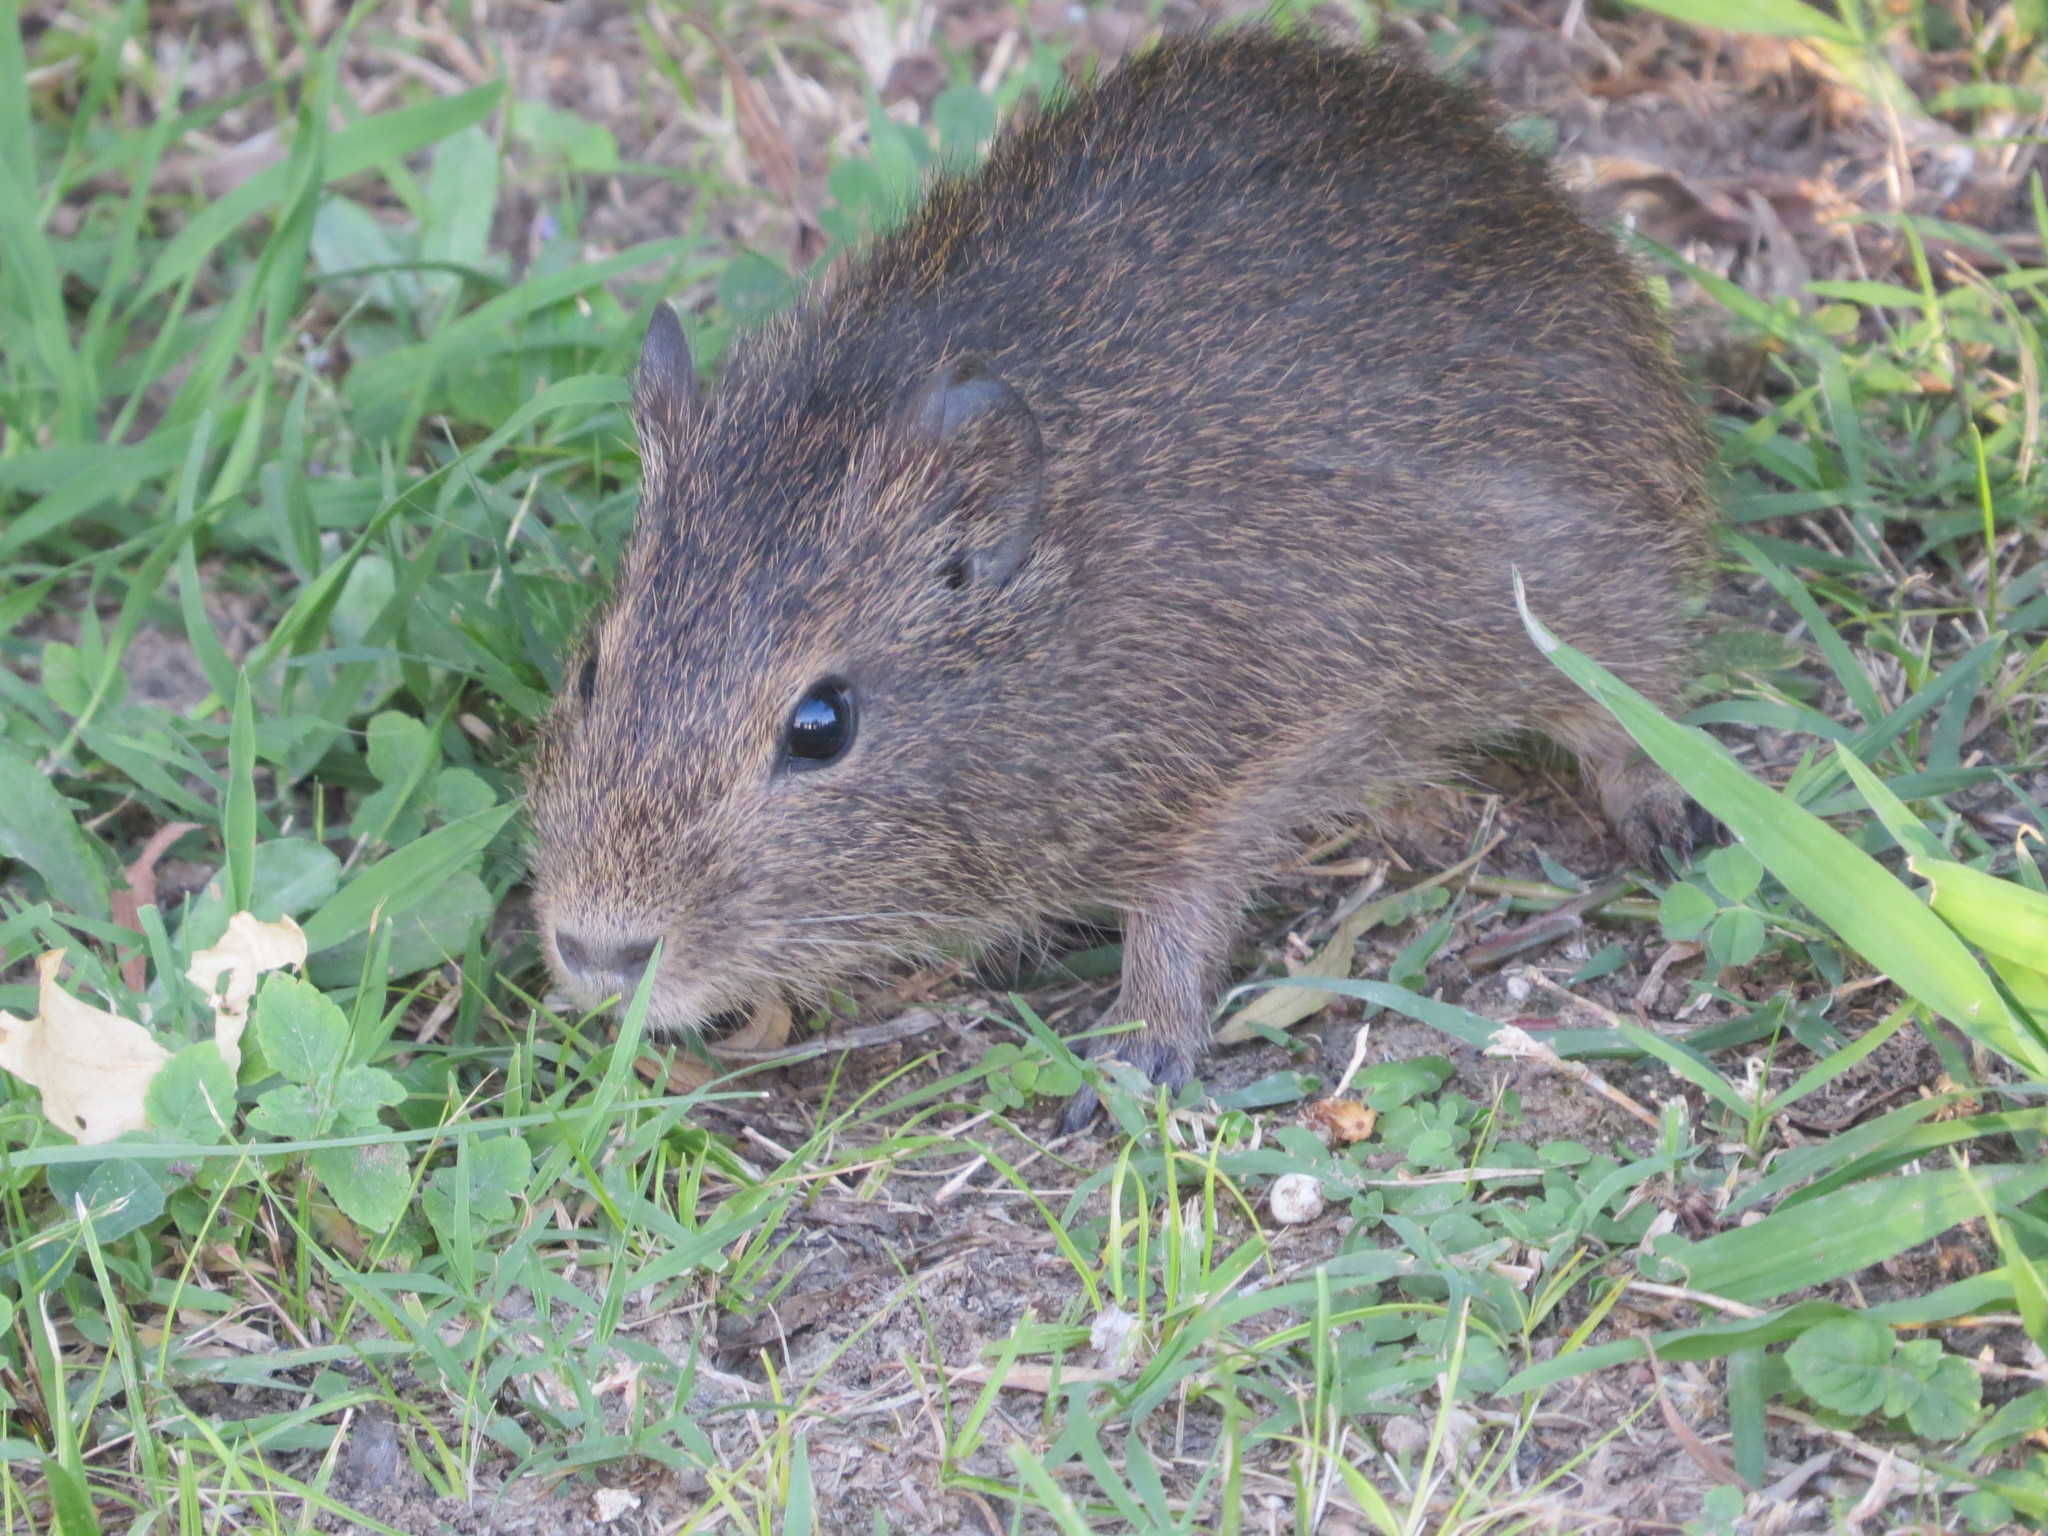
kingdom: Animalia
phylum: Chordata
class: Mammalia
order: Rodentia
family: Caviidae
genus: Cavia
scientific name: Cavia aperea
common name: Brazilian guinea pig
